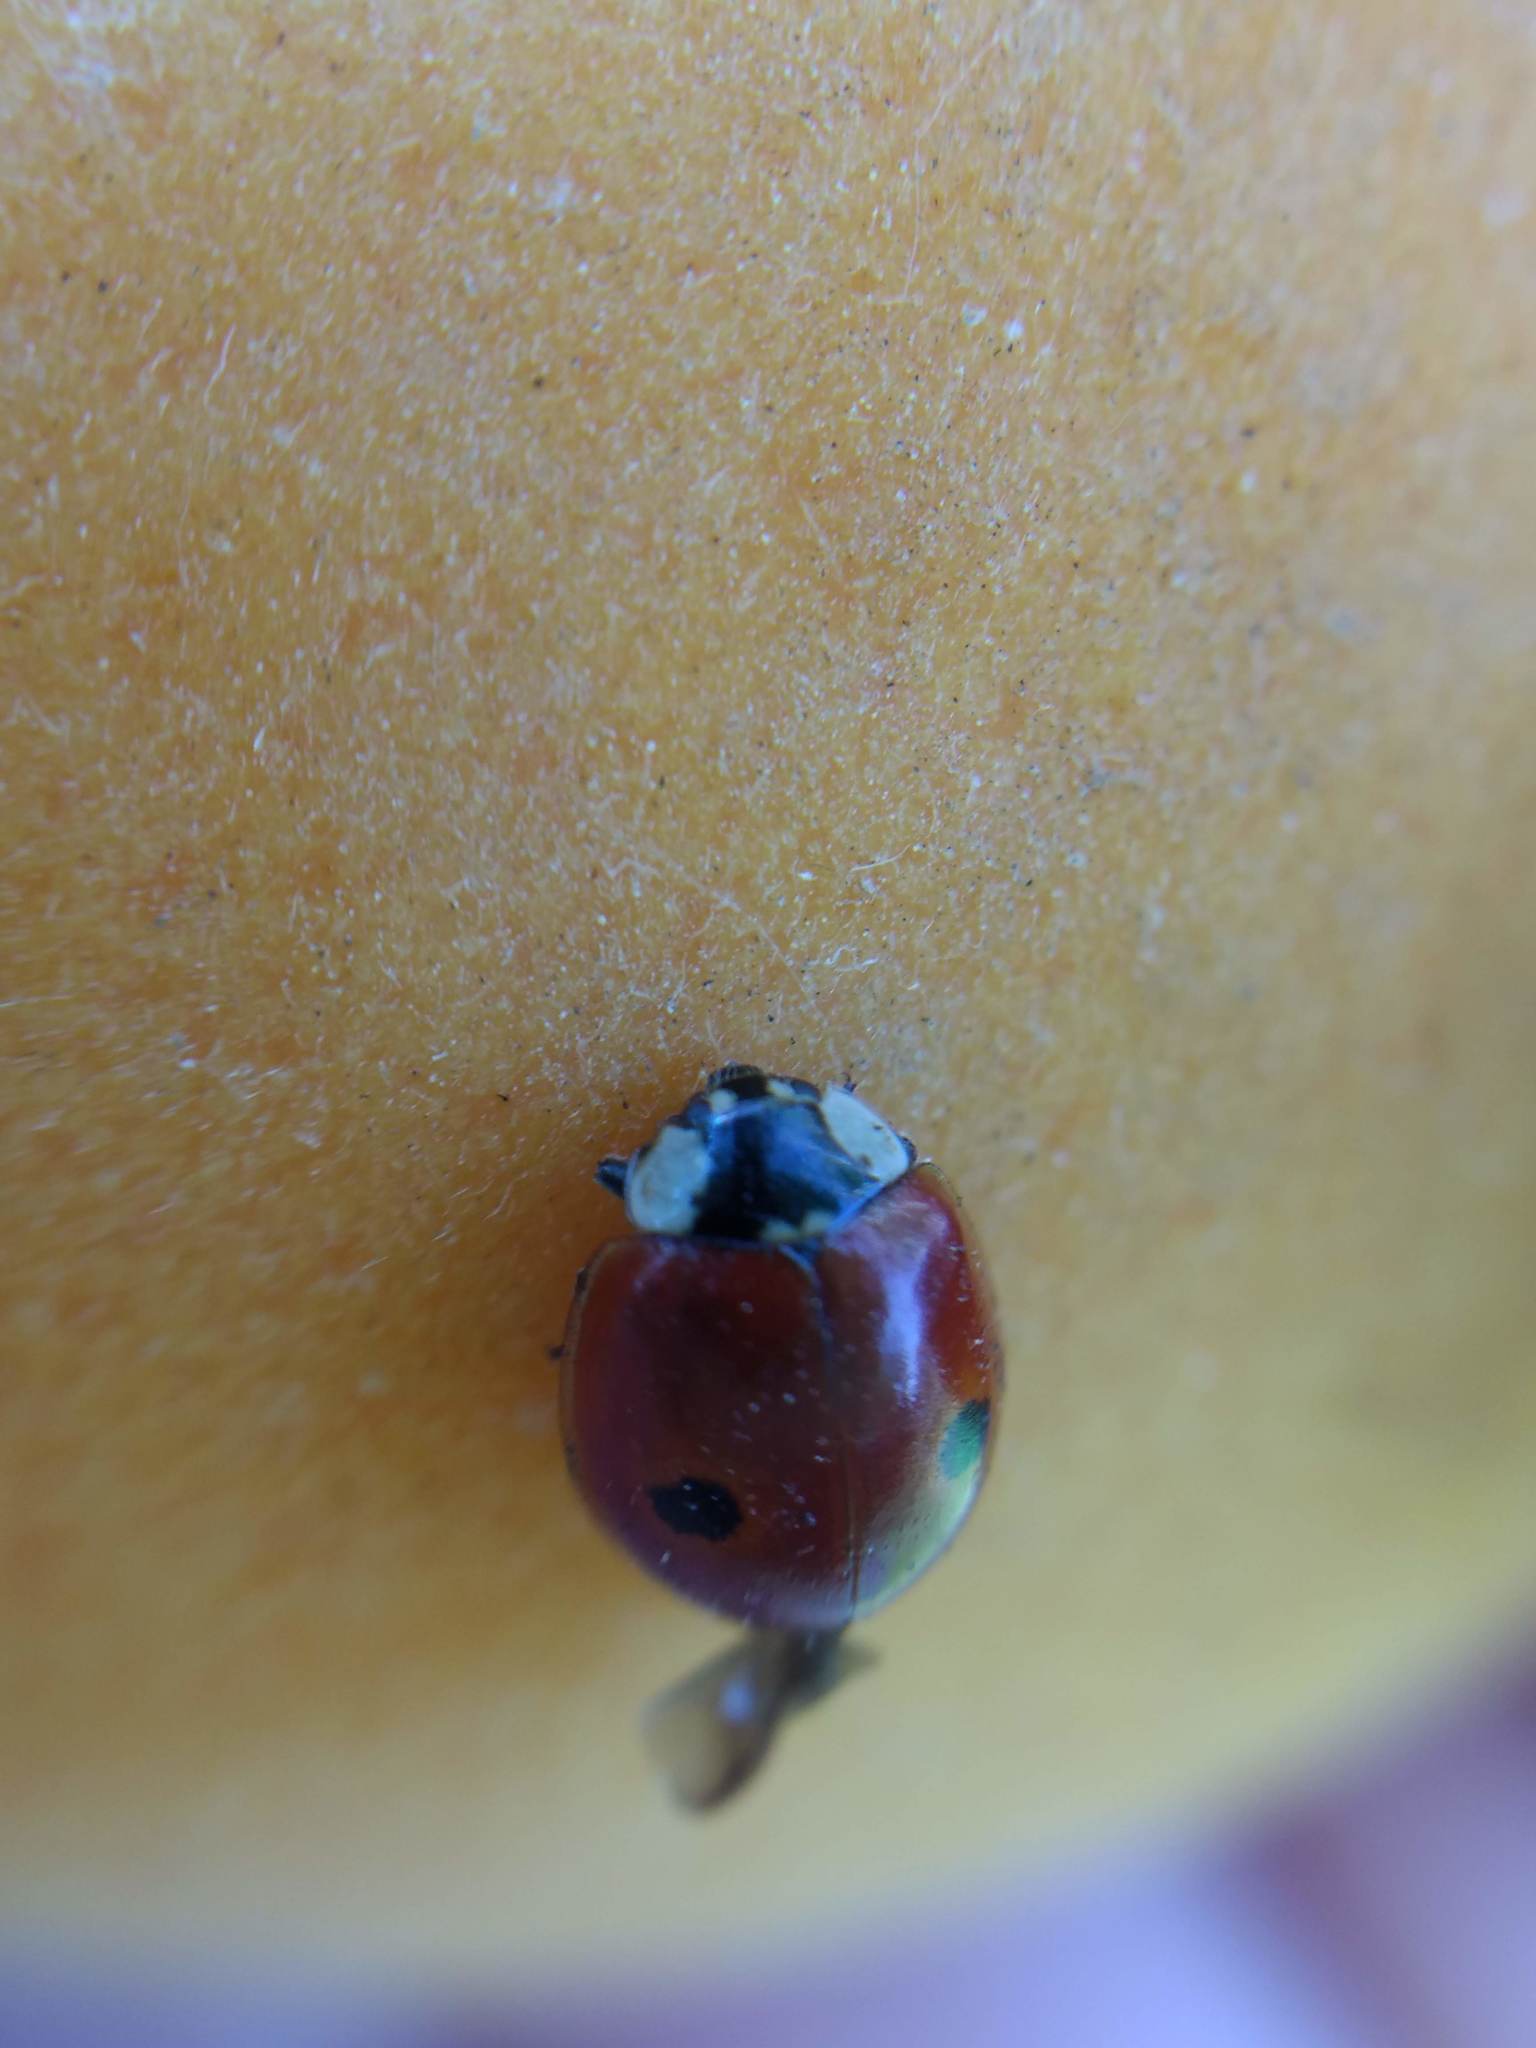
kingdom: Animalia
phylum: Arthropoda
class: Insecta
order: Coleoptera
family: Coccinellidae
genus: Adalia
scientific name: Adalia bipunctata
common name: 2-spot ladybird
